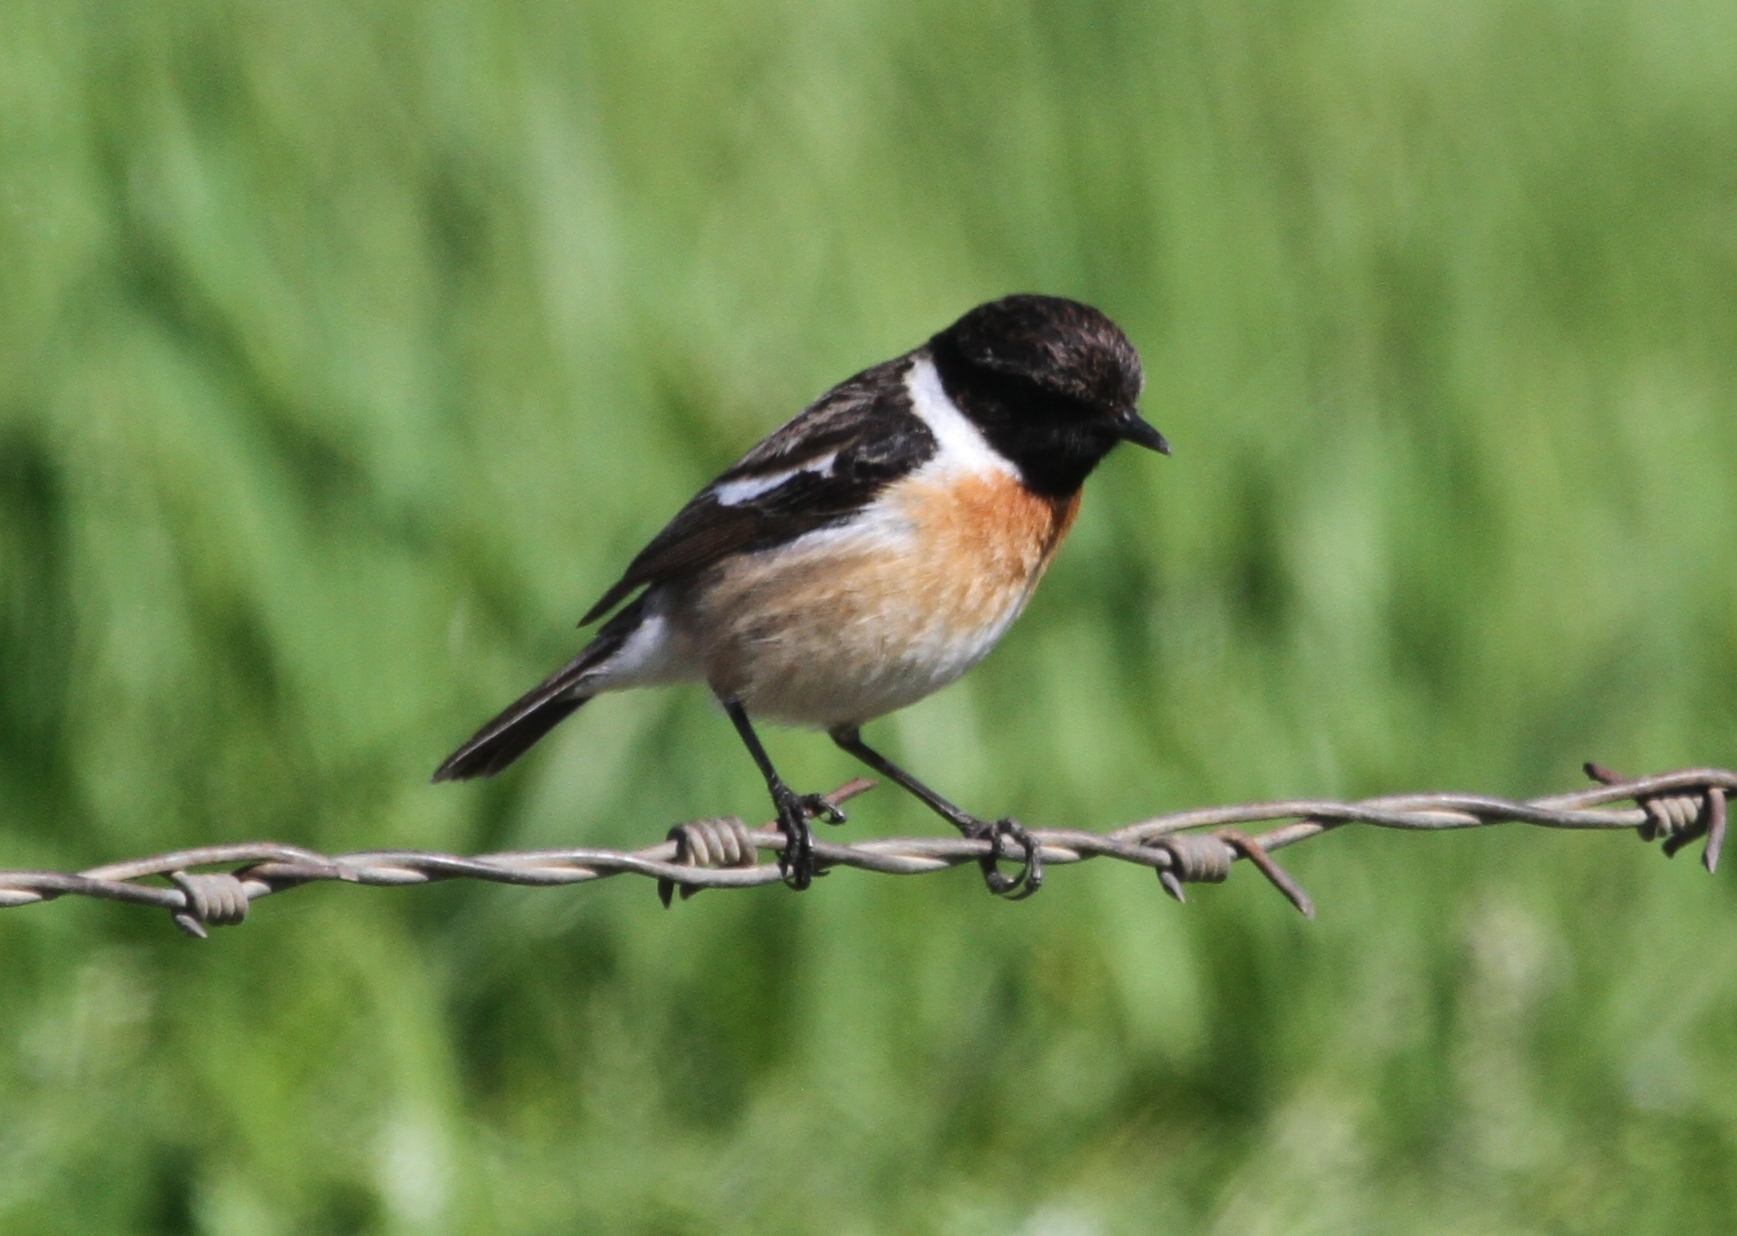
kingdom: Animalia
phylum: Chordata
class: Aves
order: Passeriformes
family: Muscicapidae
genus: Saxicola
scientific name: Saxicola rubicola
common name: European stonechat
